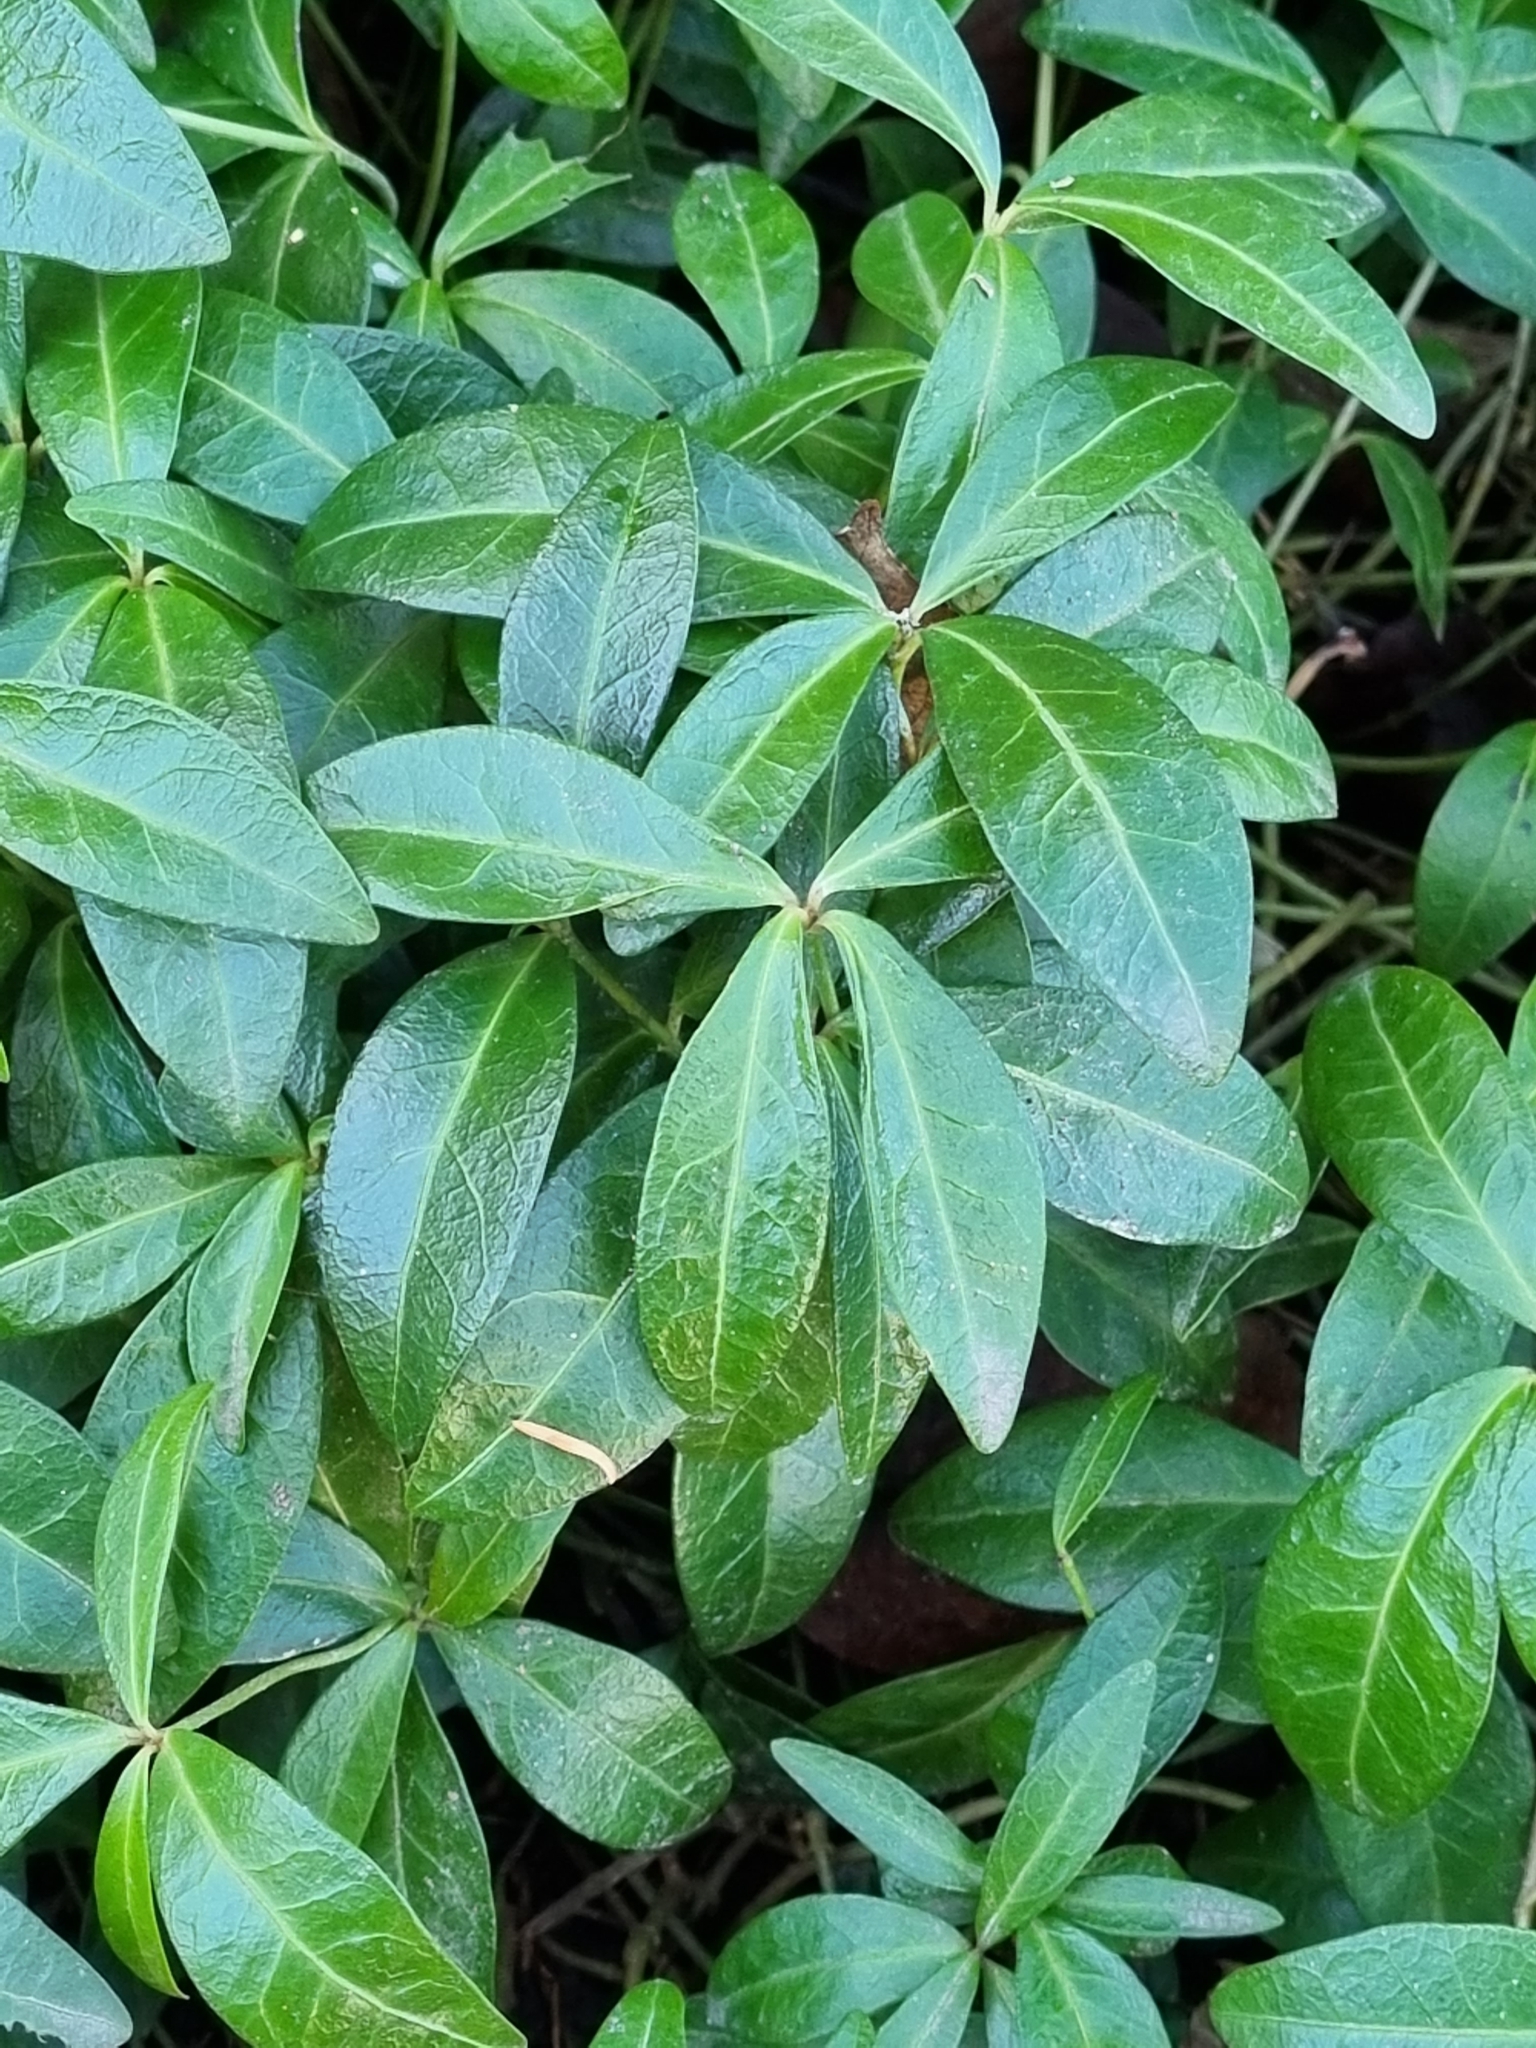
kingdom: Plantae
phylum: Tracheophyta
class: Magnoliopsida
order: Gentianales
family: Apocynaceae
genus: Vinca
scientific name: Vinca minor
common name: Lesser periwinkle
